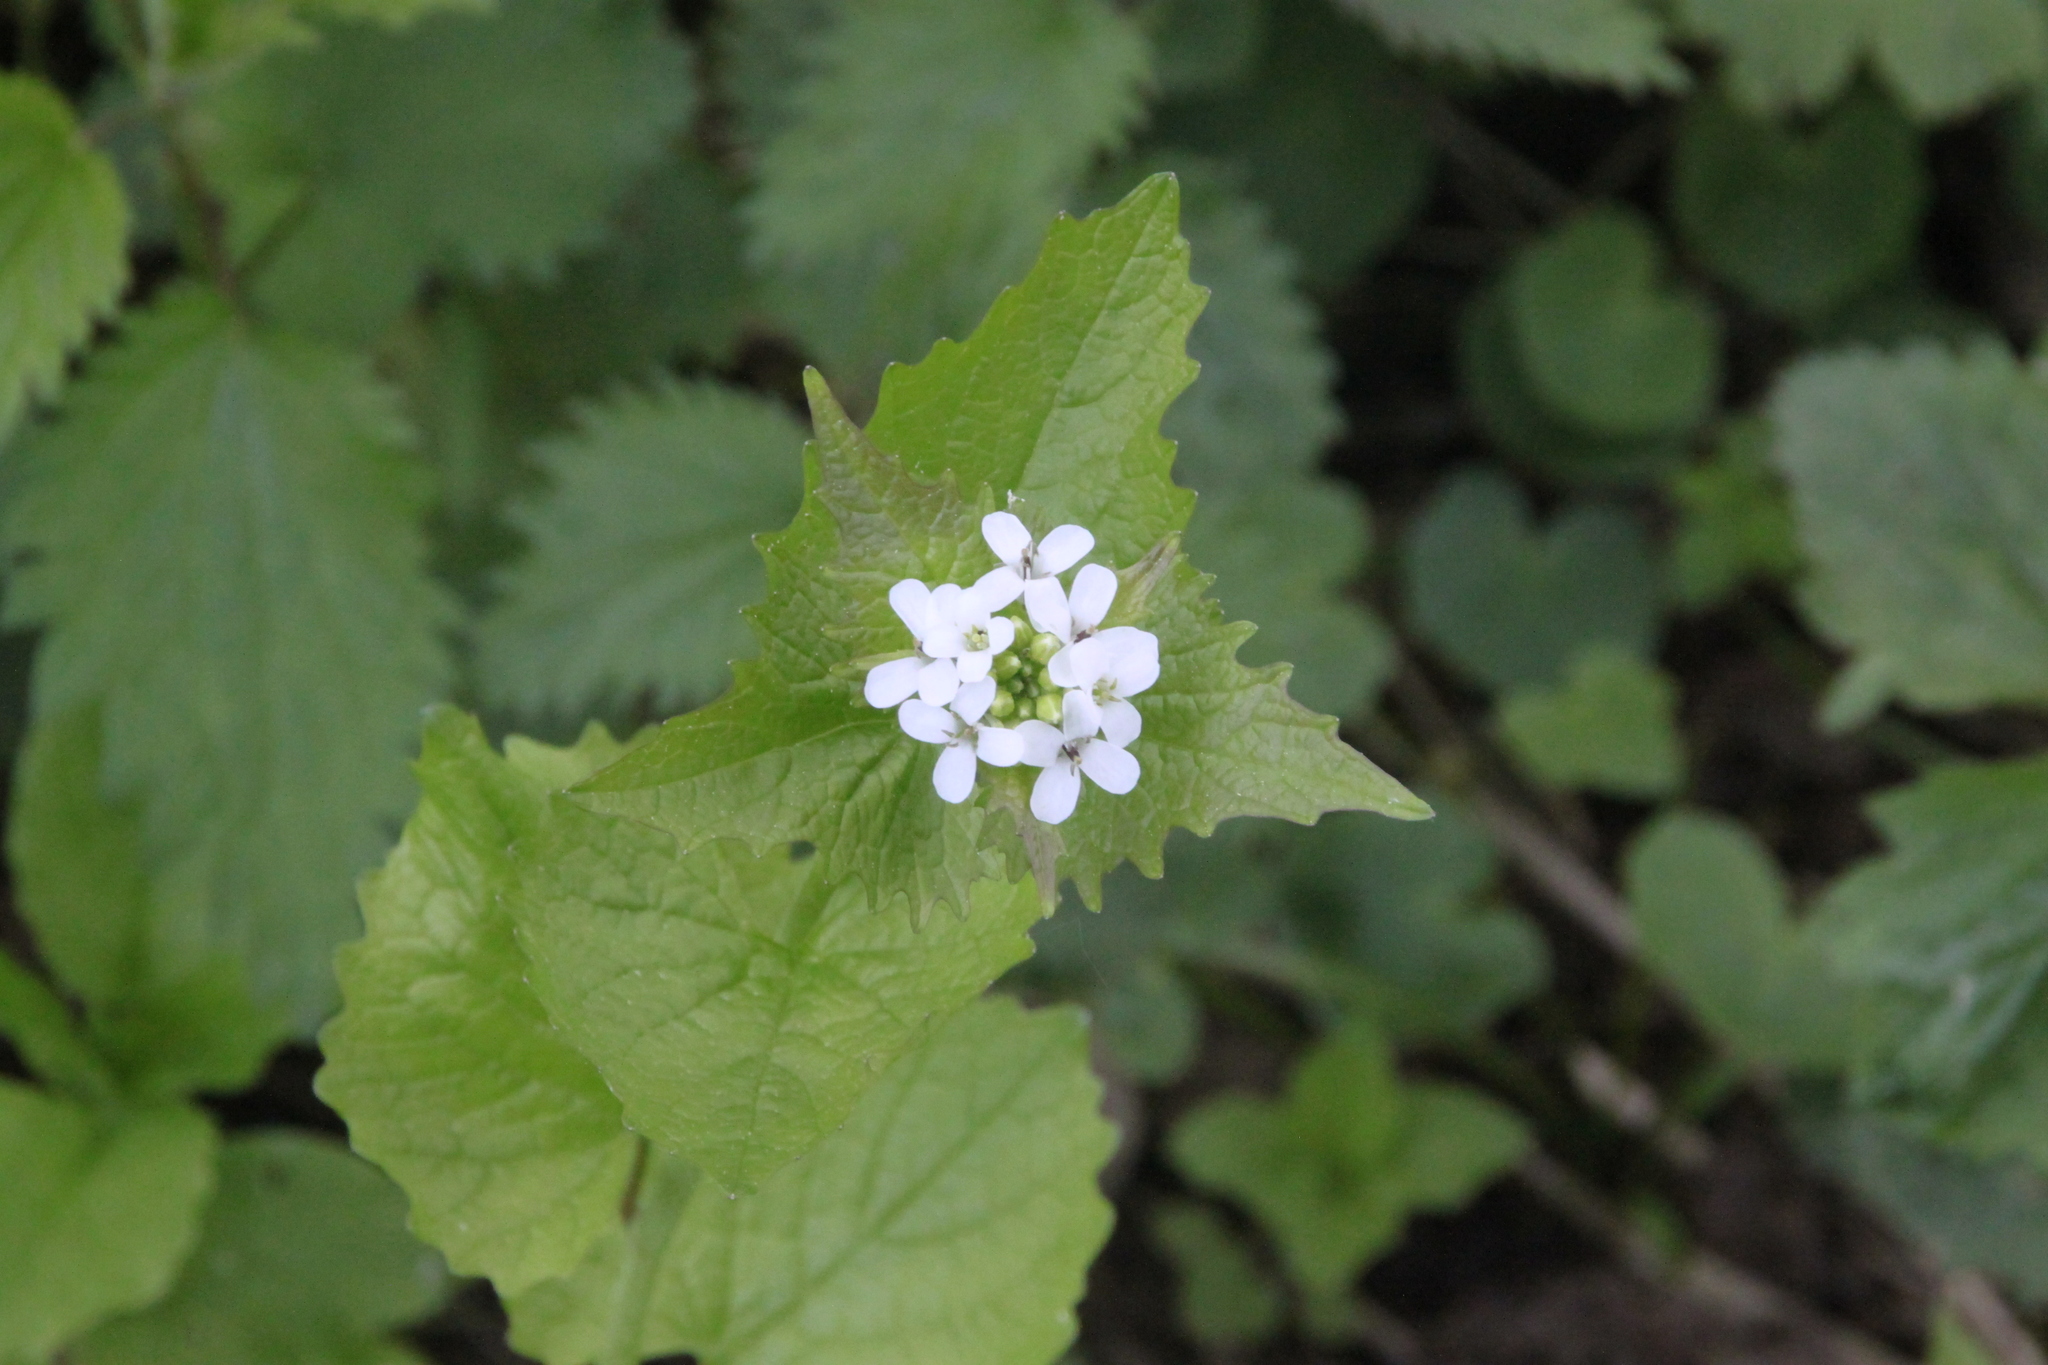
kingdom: Plantae
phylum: Tracheophyta
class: Magnoliopsida
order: Brassicales
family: Brassicaceae
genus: Alliaria
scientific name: Alliaria petiolata
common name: Garlic mustard
